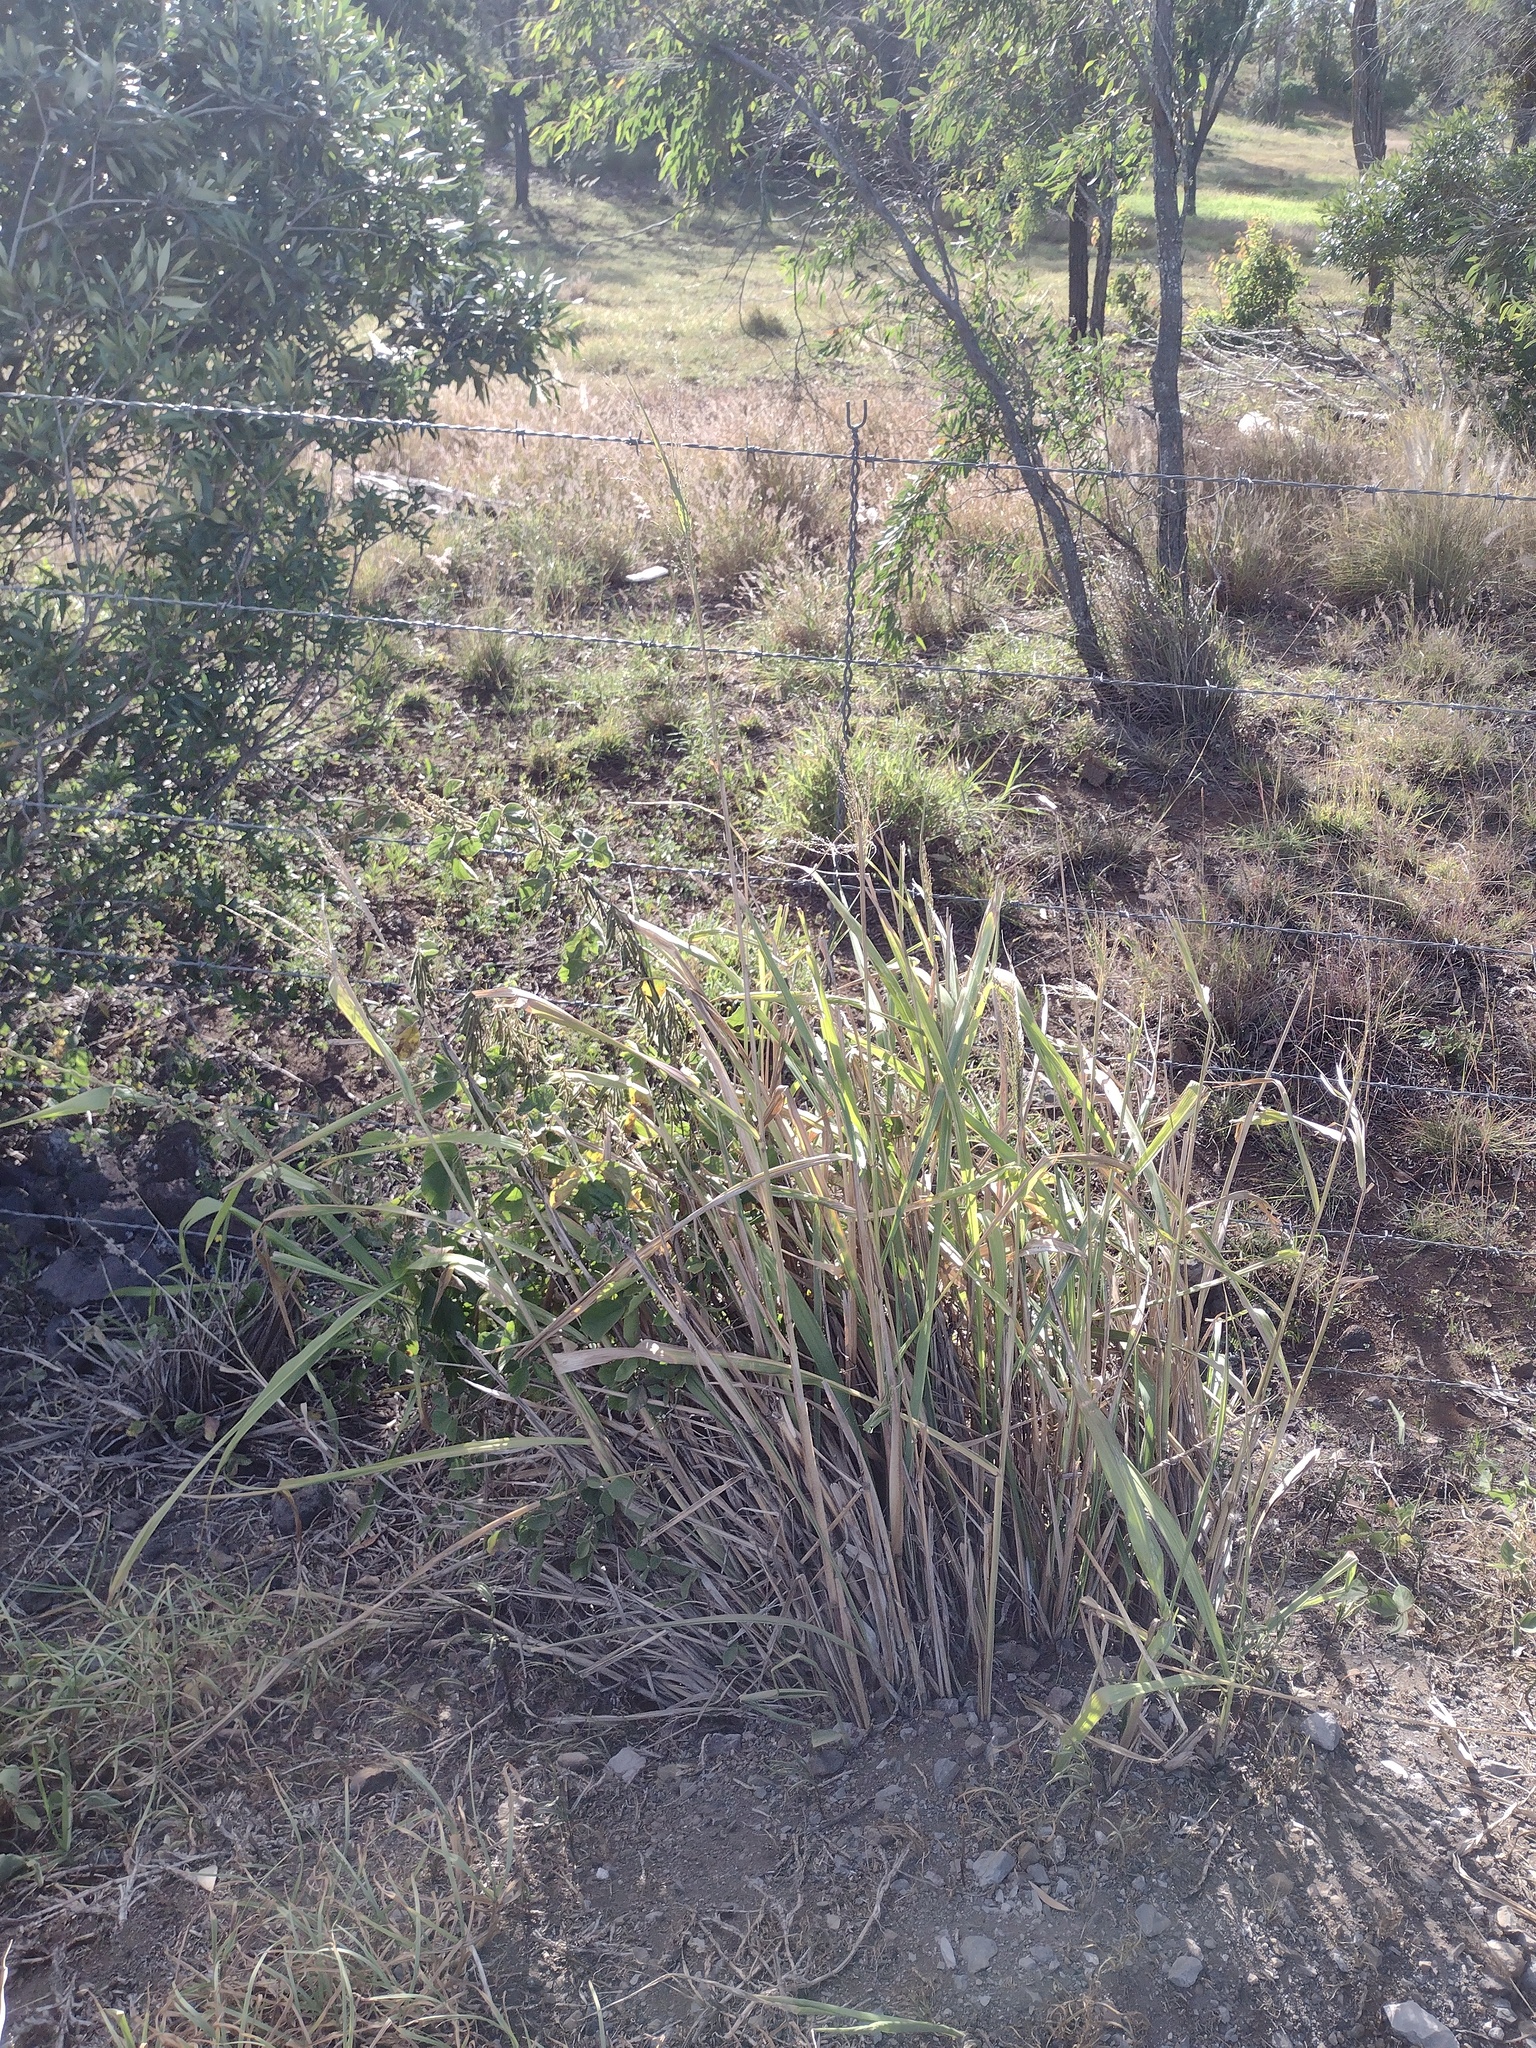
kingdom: Plantae
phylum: Tracheophyta
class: Liliopsida
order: Poales
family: Poaceae
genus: Megathyrsus
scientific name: Megathyrsus maximus
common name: Guineagrass
